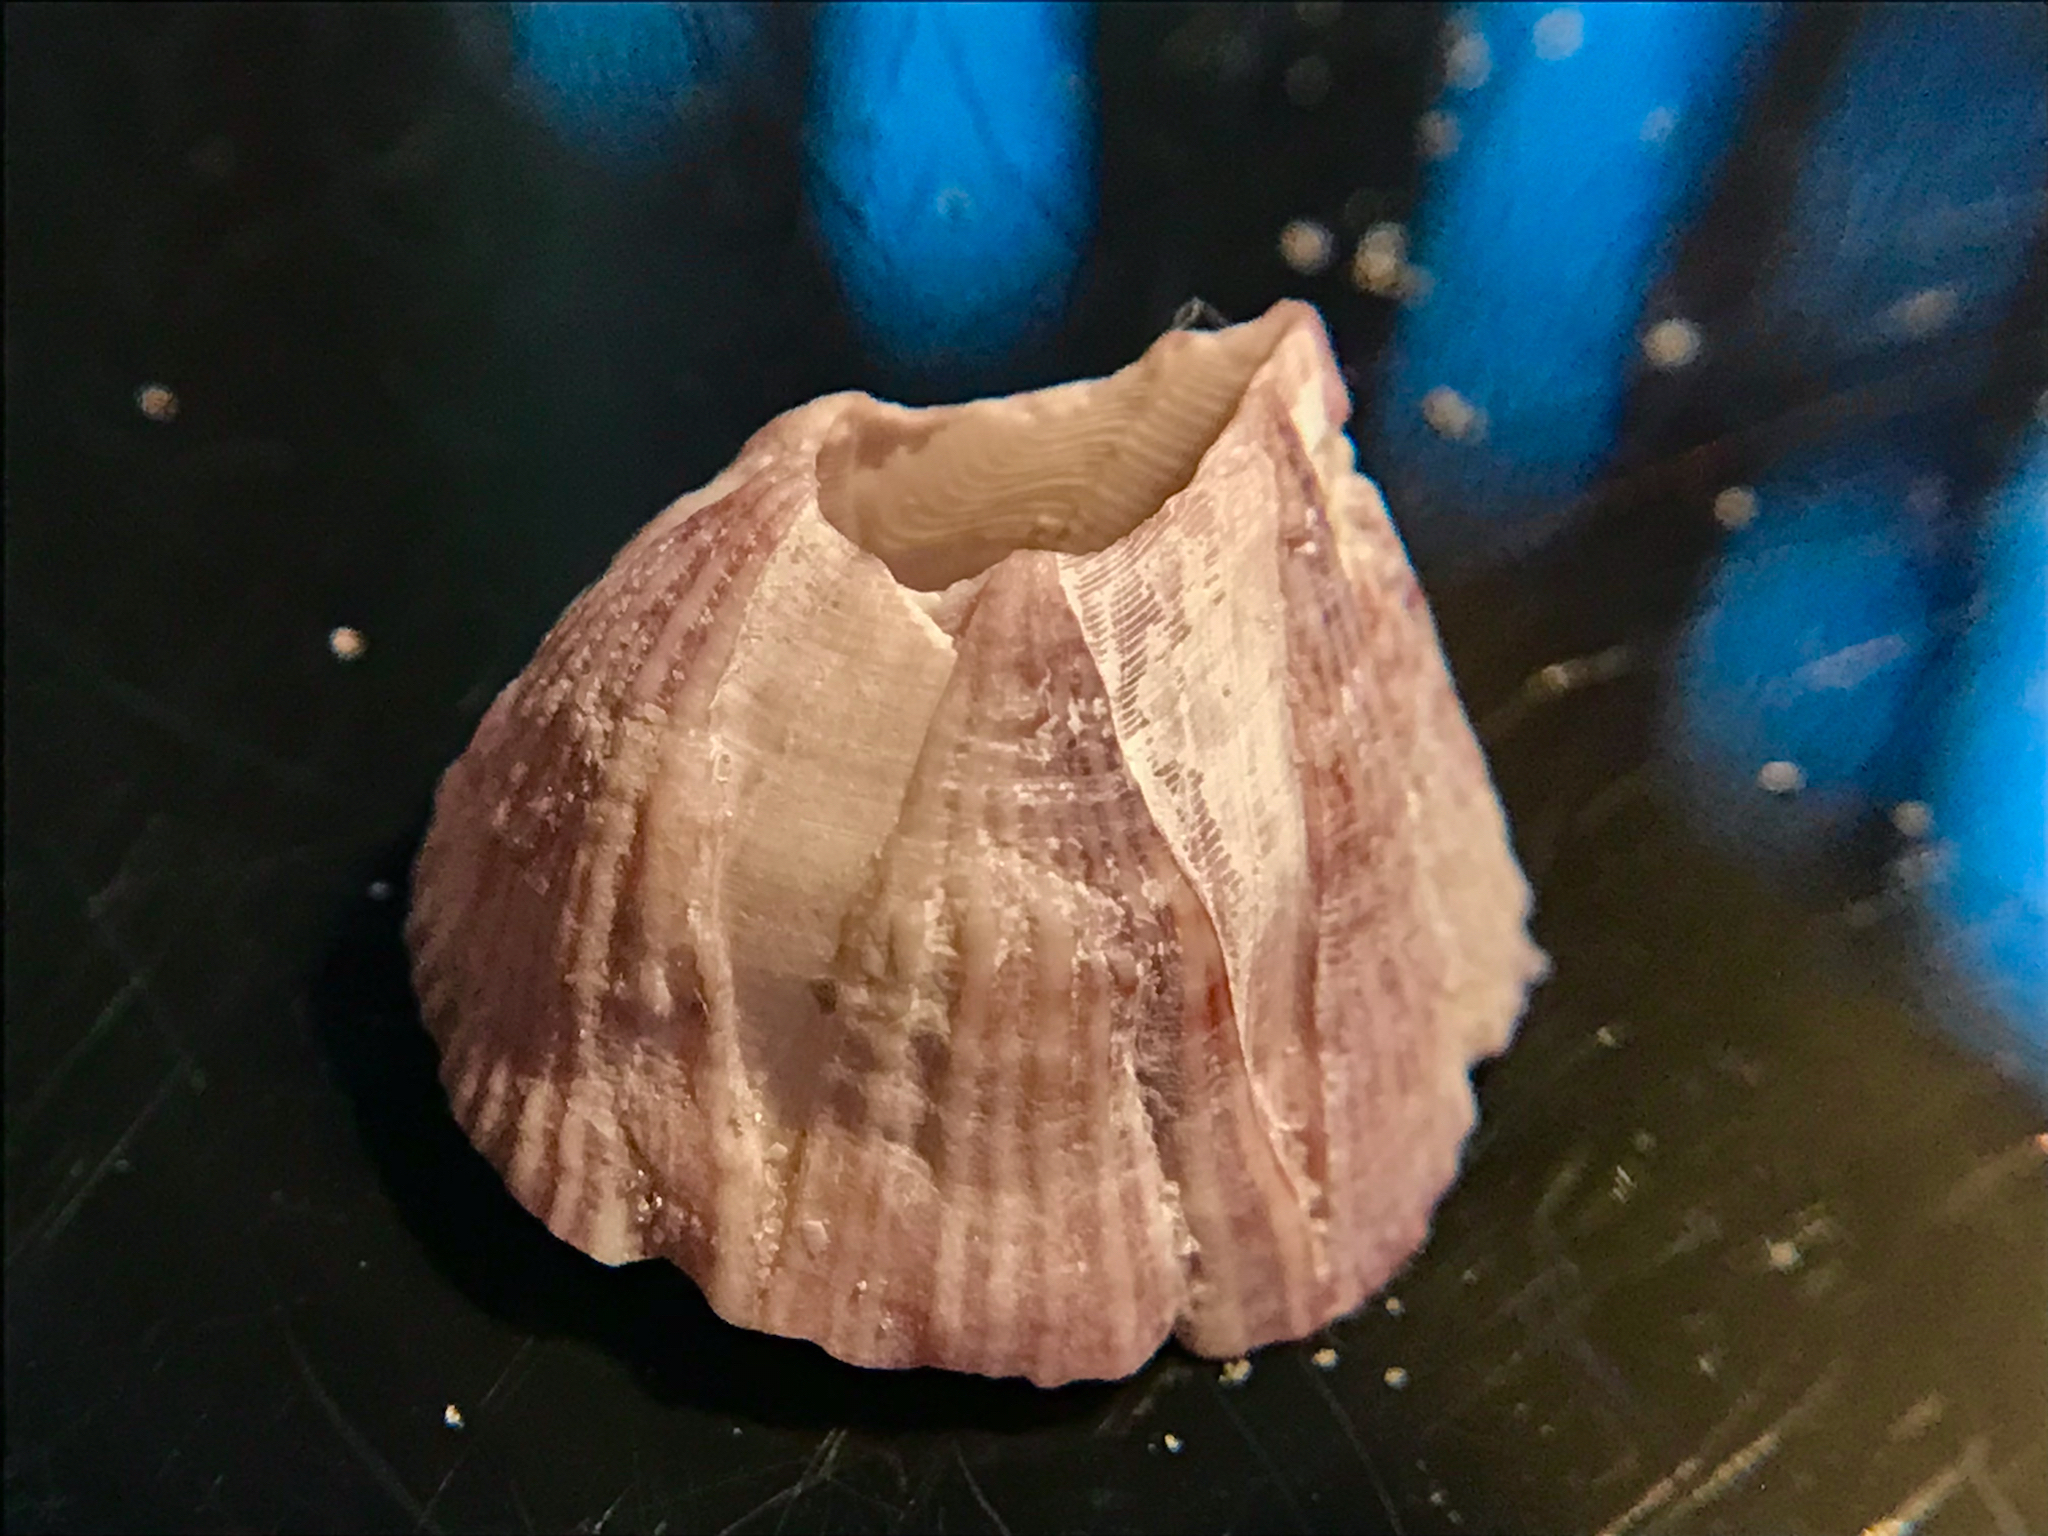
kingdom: Animalia
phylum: Arthropoda
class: Maxillopoda
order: Sessilia
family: Balanidae
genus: Balanus
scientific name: Balanus trigonus
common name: Triangle barnacle
